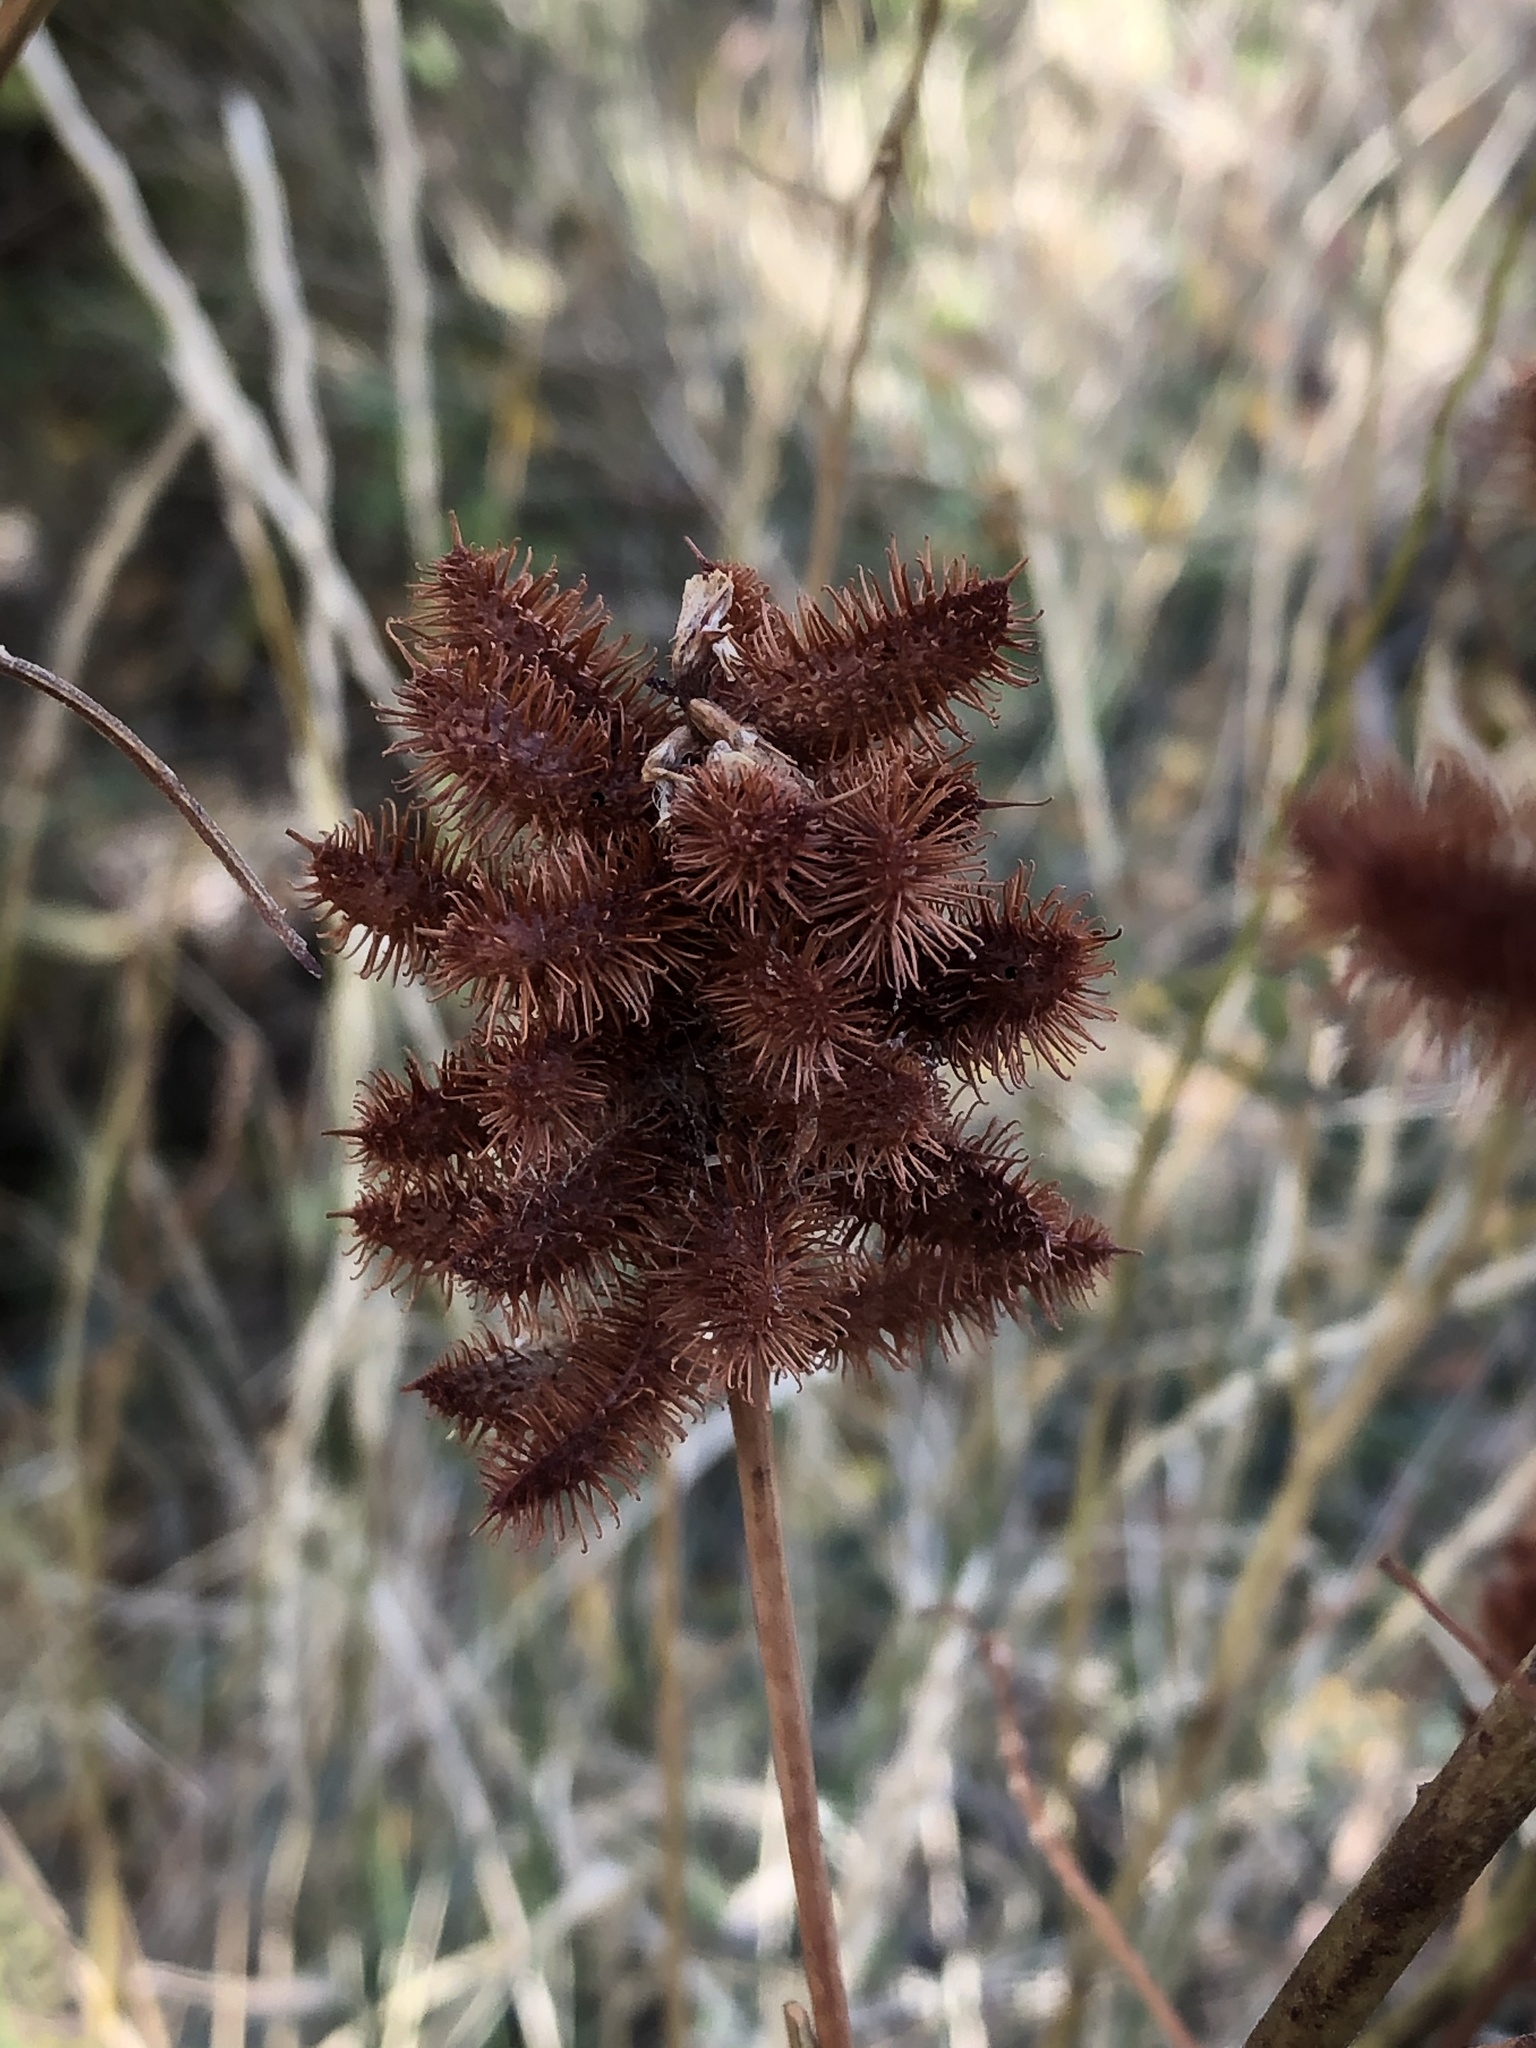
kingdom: Plantae
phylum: Tracheophyta
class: Magnoliopsida
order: Fabales
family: Fabaceae
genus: Glycyrrhiza
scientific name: Glycyrrhiza lepidota
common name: American liquorice
